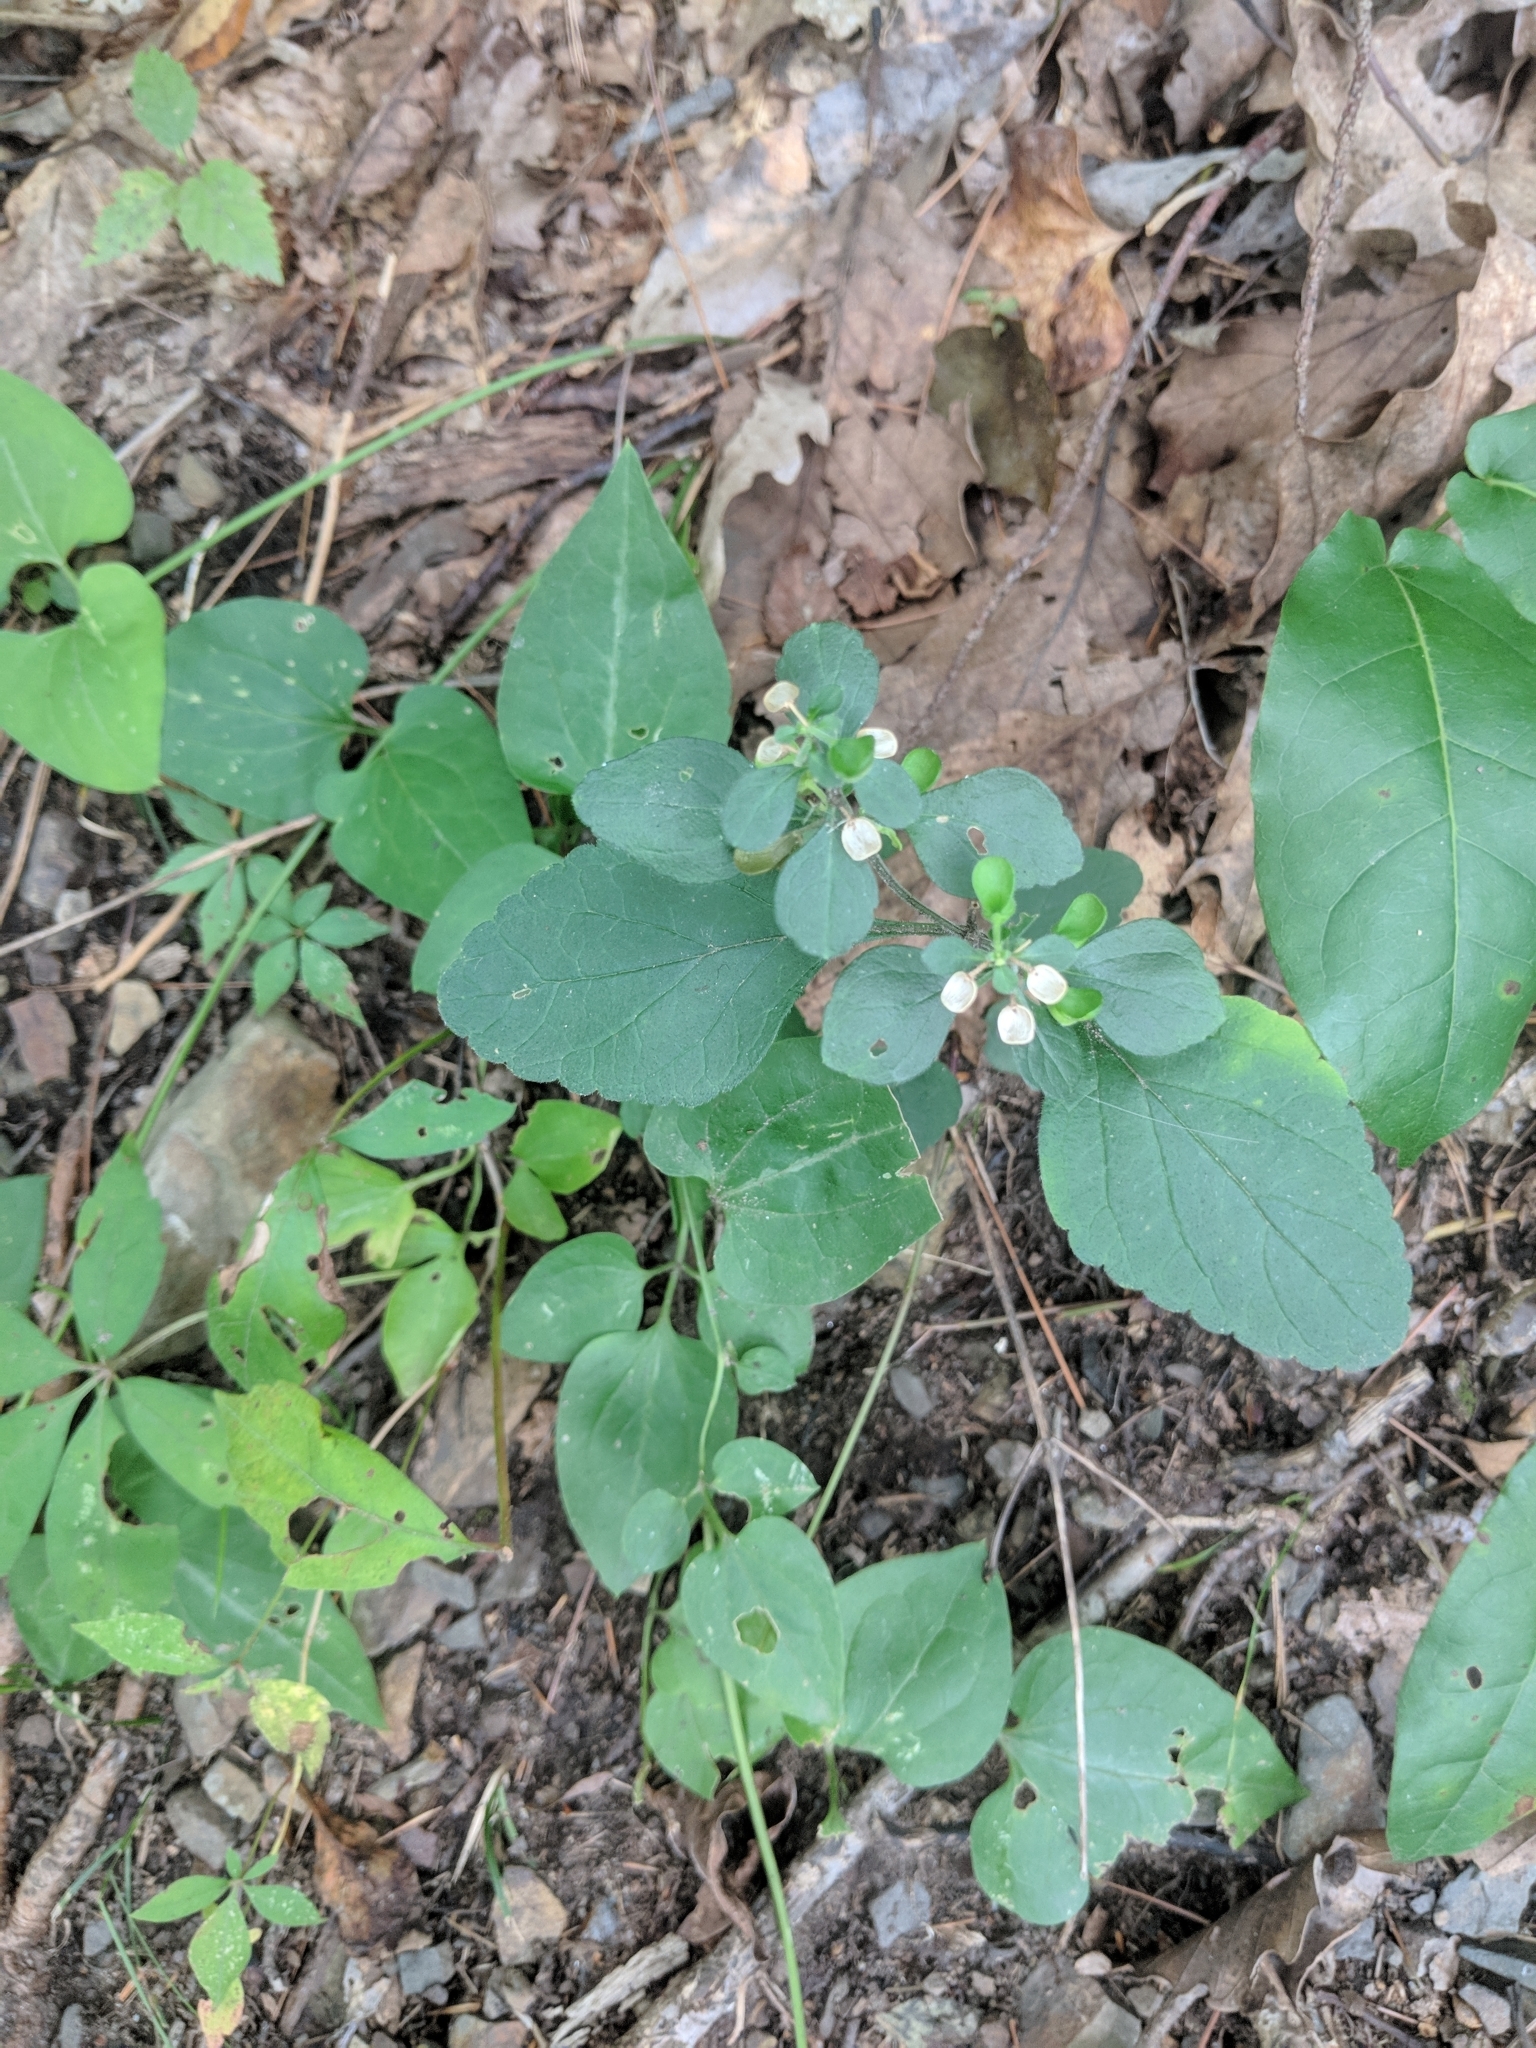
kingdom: Plantae
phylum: Tracheophyta
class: Magnoliopsida
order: Lamiales
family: Lamiaceae
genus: Scutellaria
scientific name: Scutellaria elliptica
